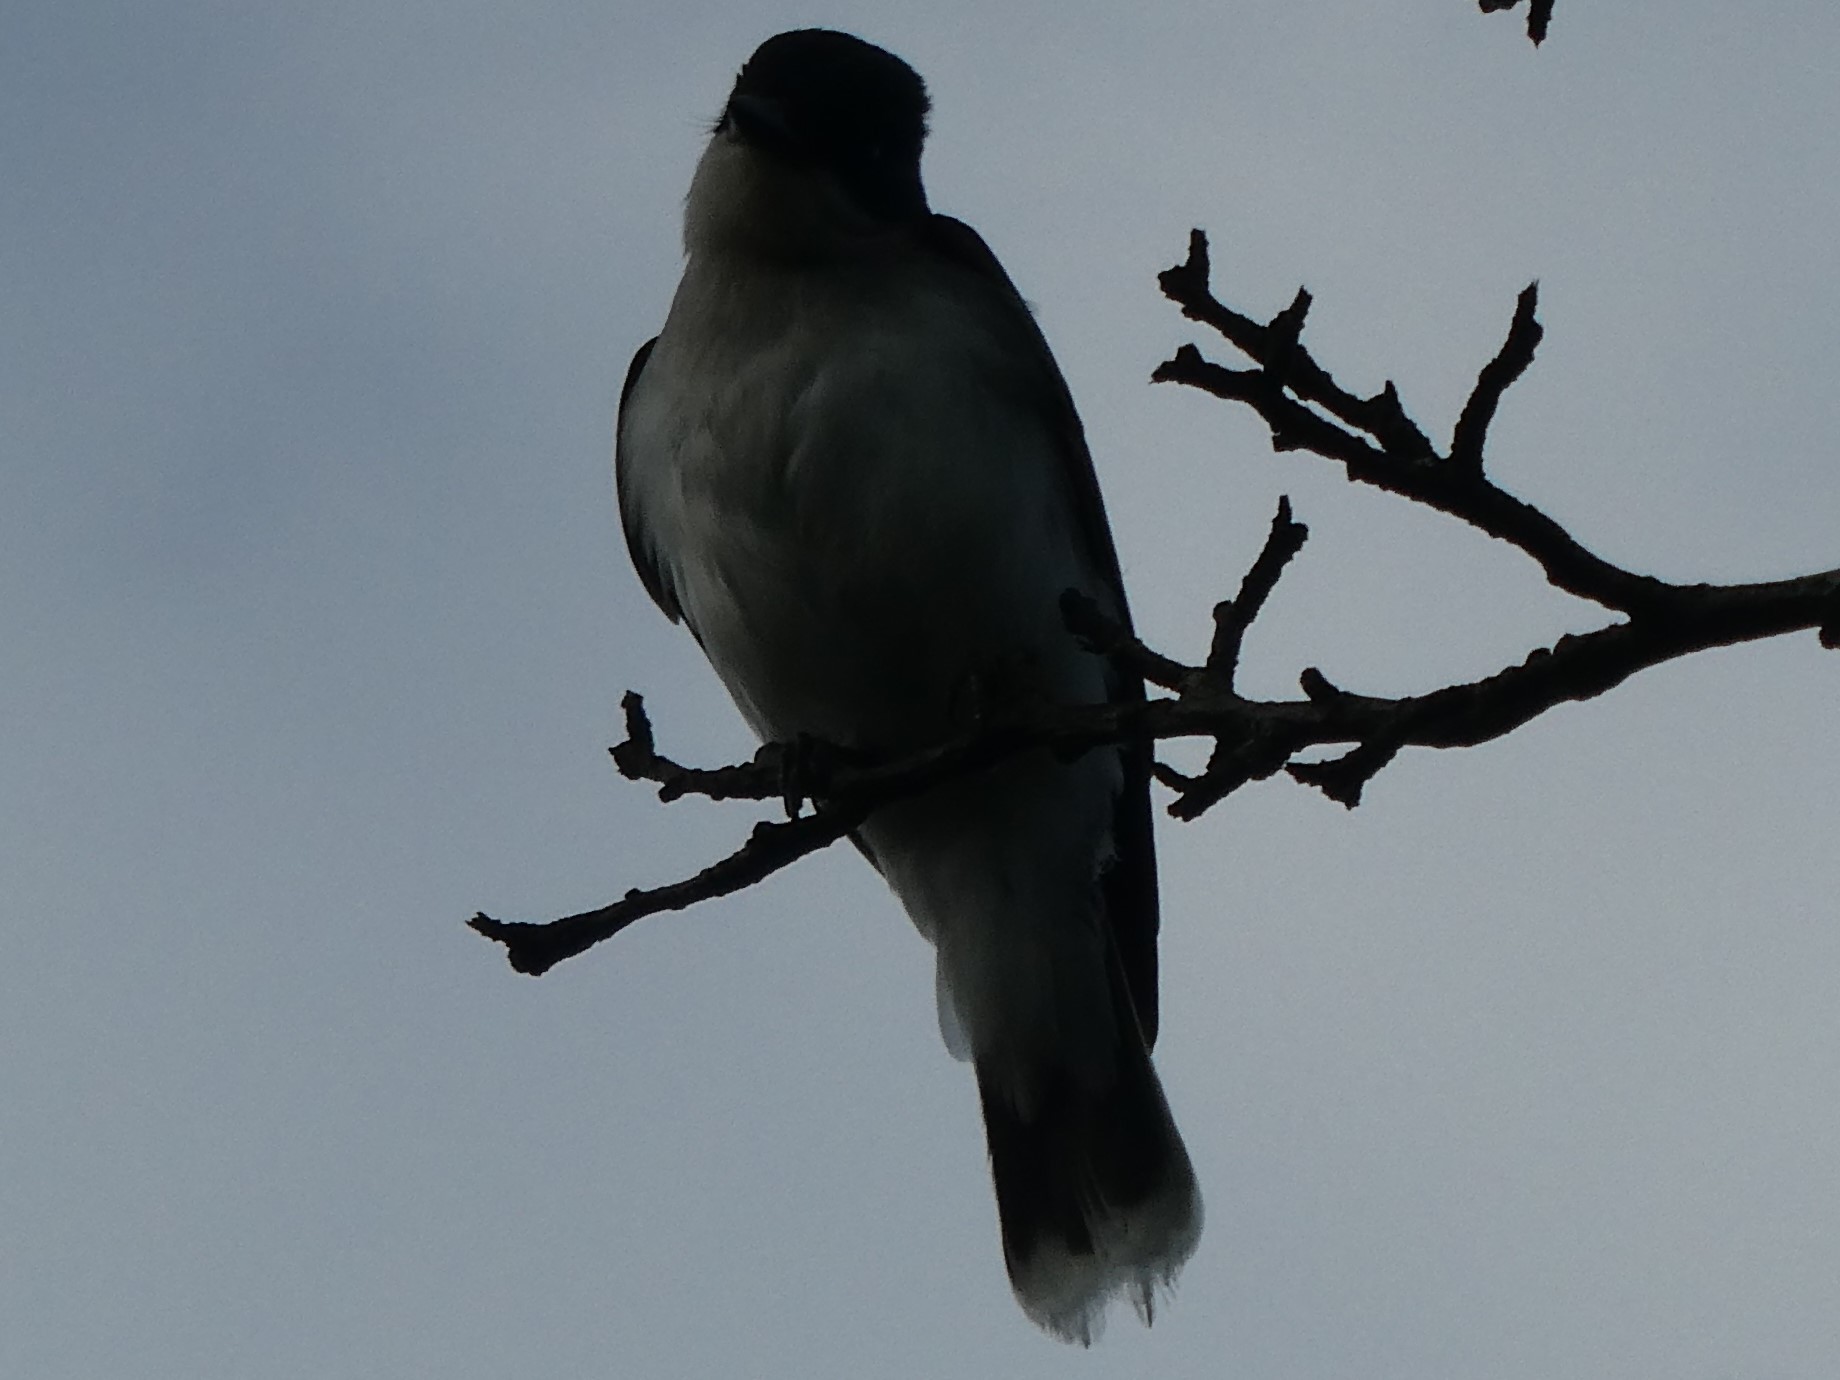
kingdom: Animalia
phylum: Chordata
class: Aves
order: Passeriformes
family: Tyrannidae
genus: Tyrannus
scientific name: Tyrannus tyrannus
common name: Eastern kingbird
